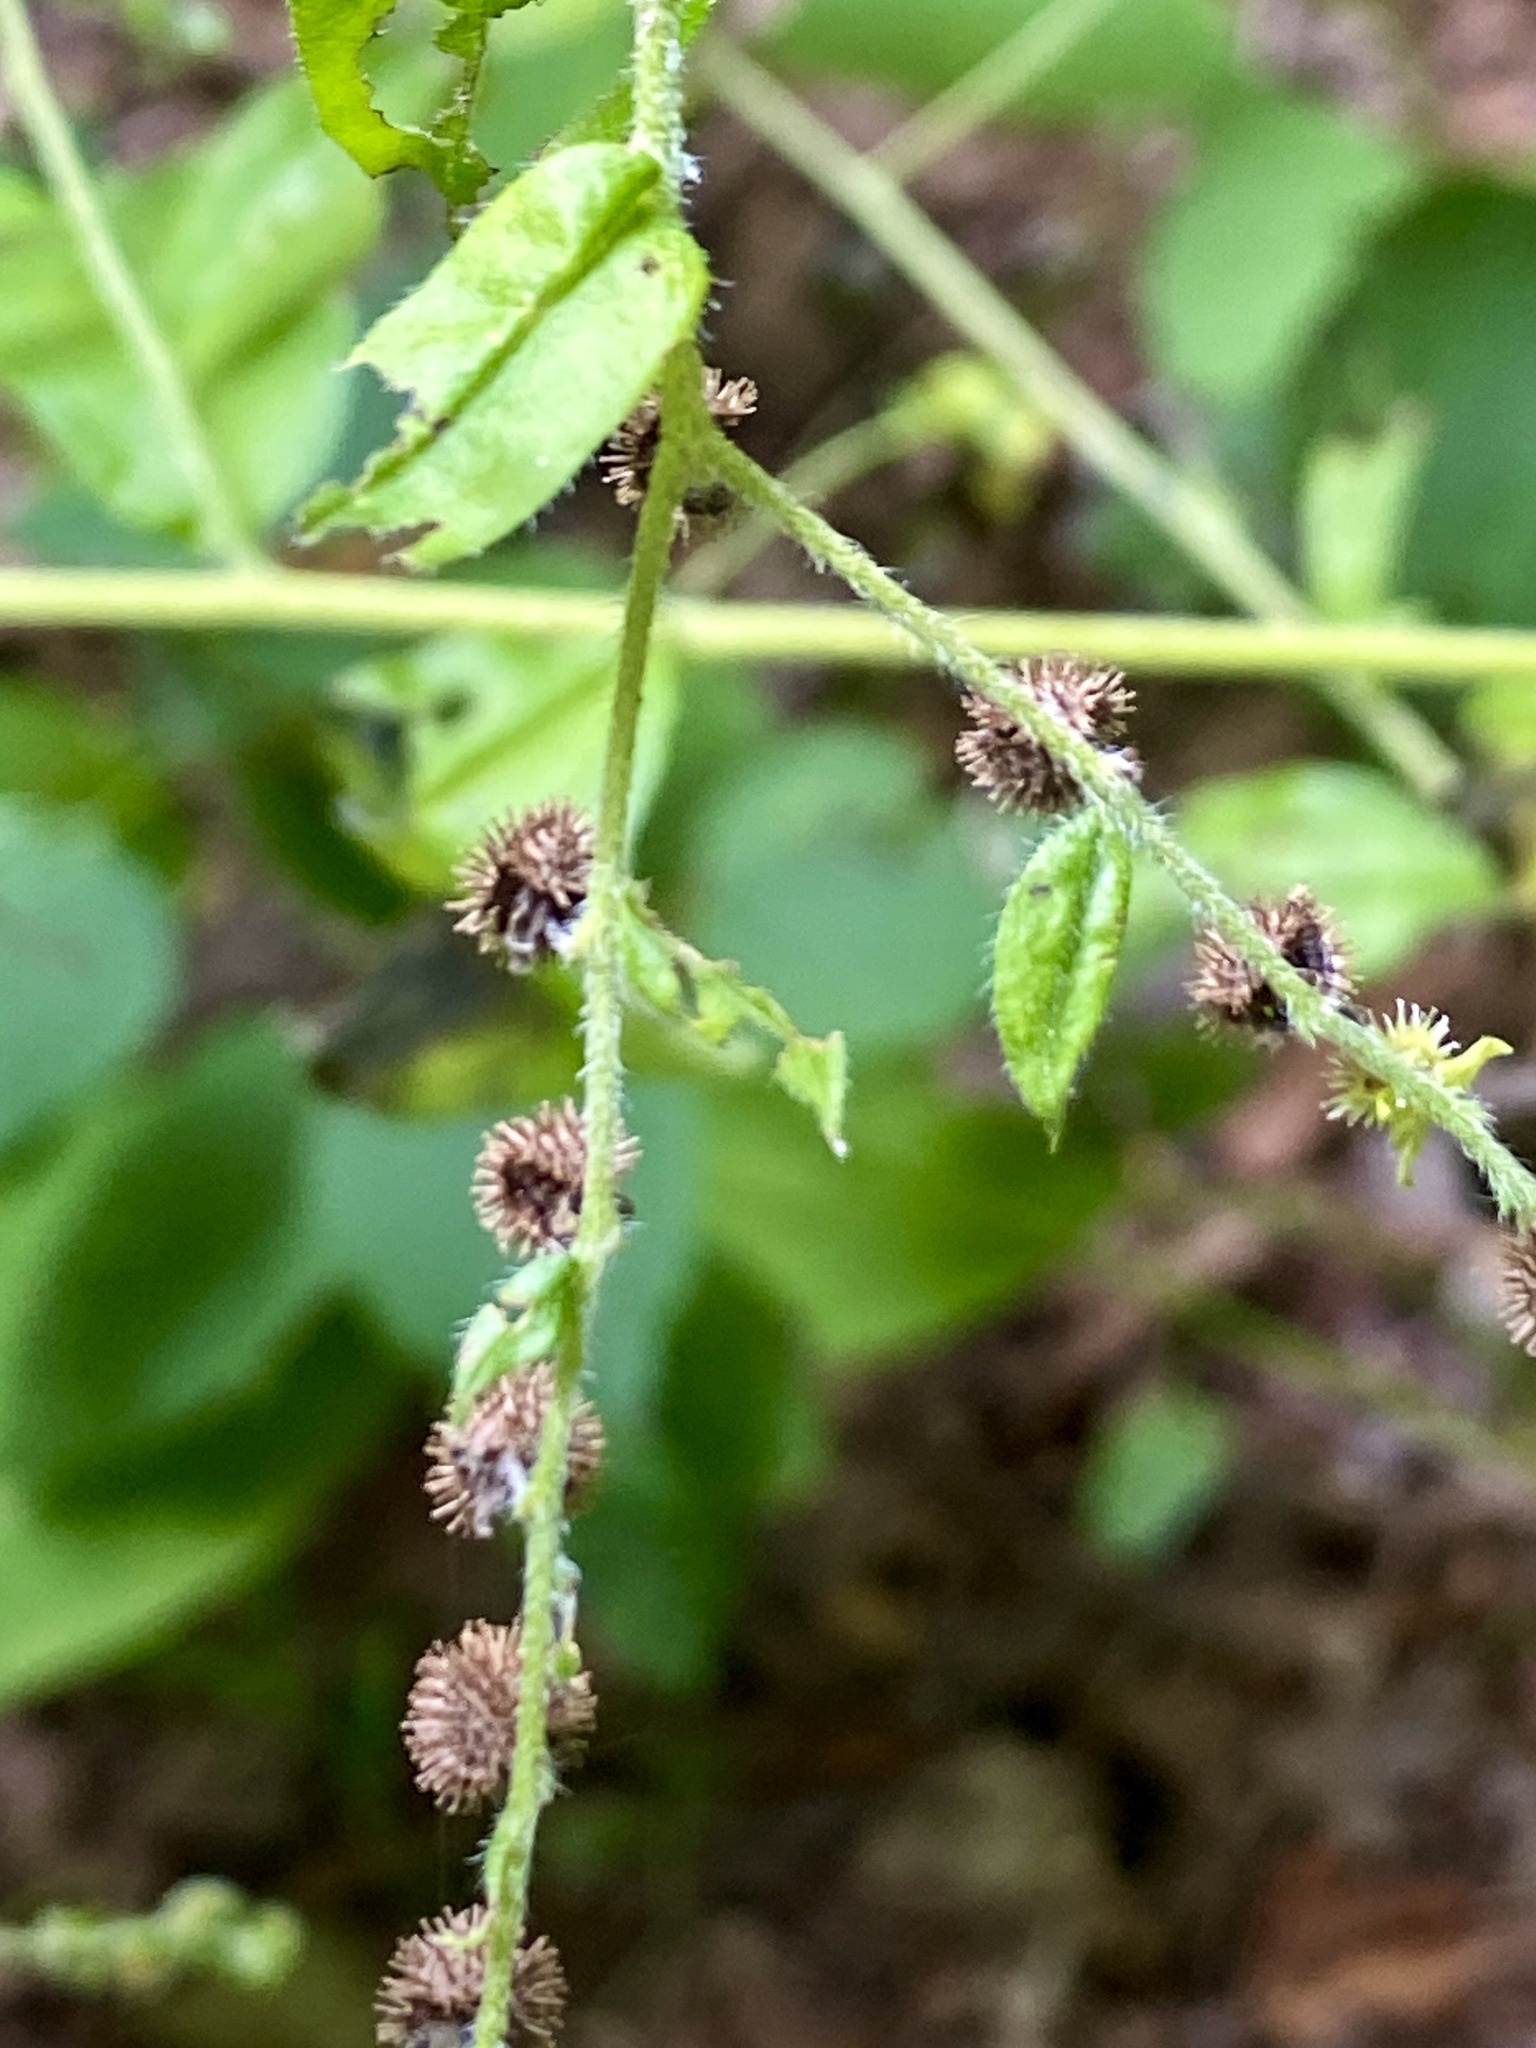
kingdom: Plantae
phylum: Tracheophyta
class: Magnoliopsida
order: Boraginales
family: Boraginaceae
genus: Hackelia
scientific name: Hackelia virginiana
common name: Beggar's-lice
